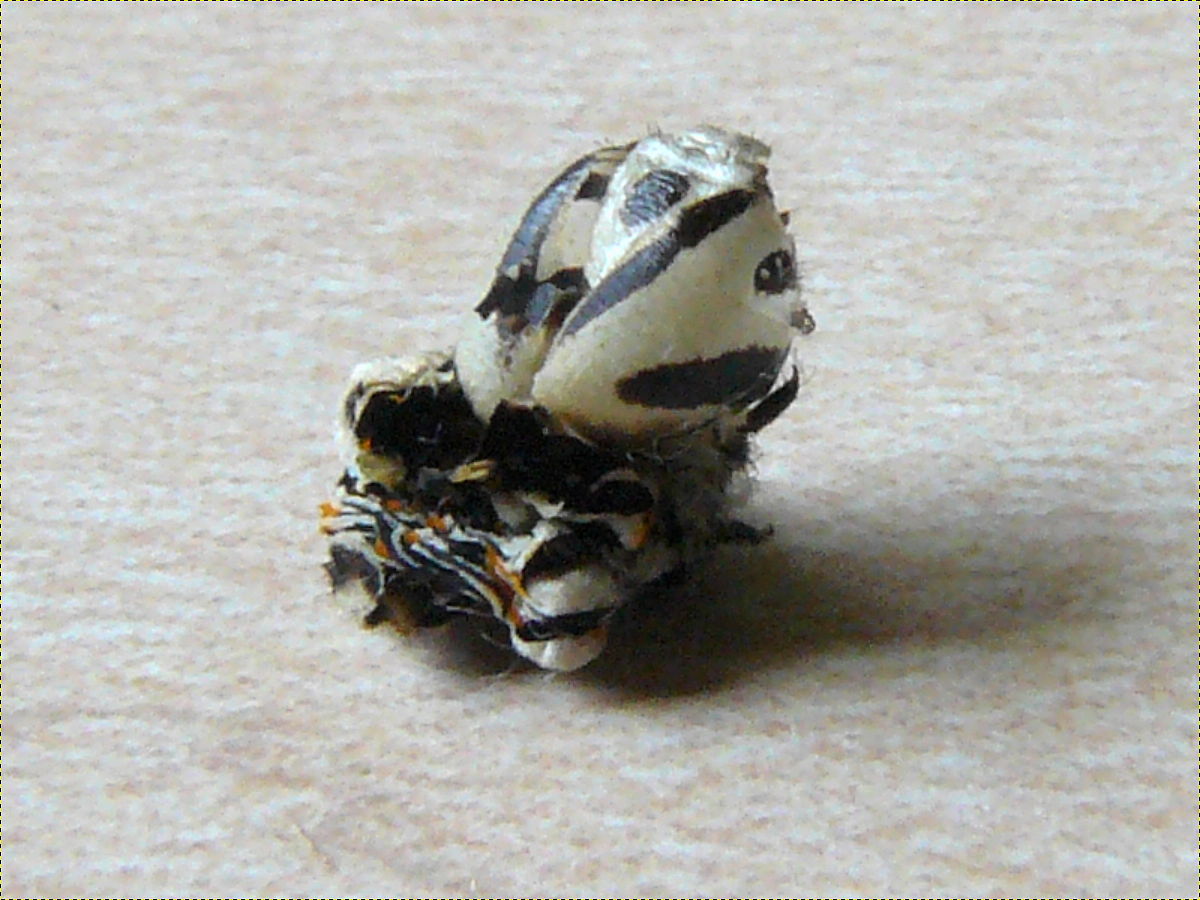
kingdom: Animalia
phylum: Arthropoda
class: Insecta
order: Lepidoptera
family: Papilionidae
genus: Papilio
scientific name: Papilio polyxenes
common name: Black swallowtail
